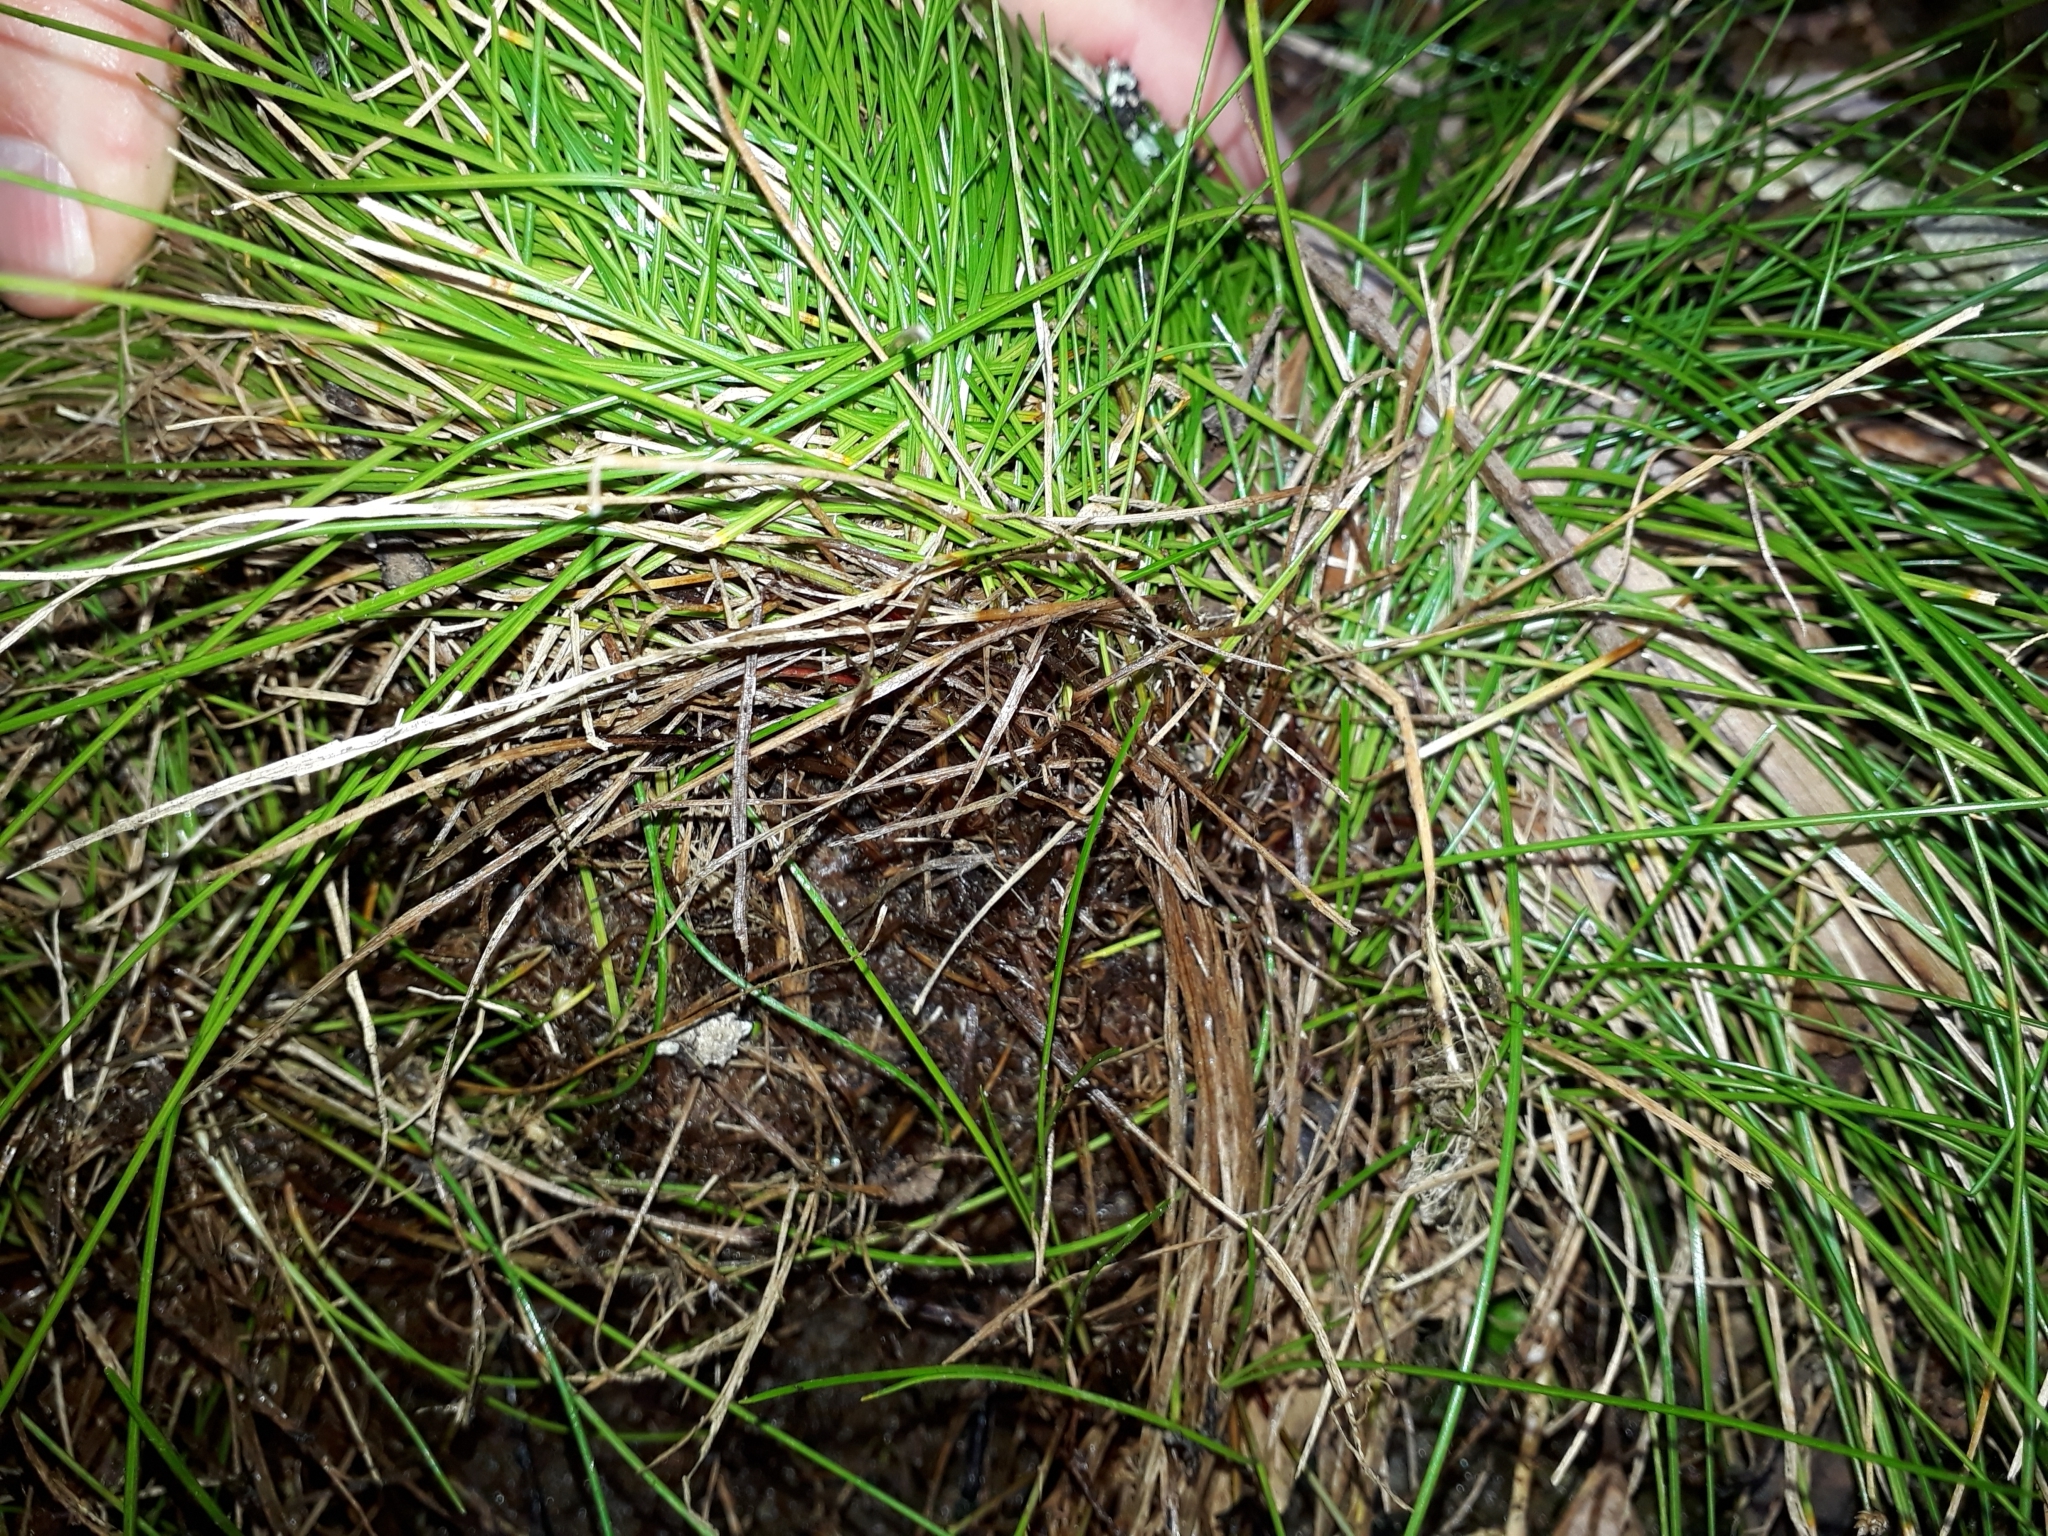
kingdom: Plantae
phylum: Tracheophyta
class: Liliopsida
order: Poales
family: Cyperaceae
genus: Isolepis
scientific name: Isolepis pottsii
